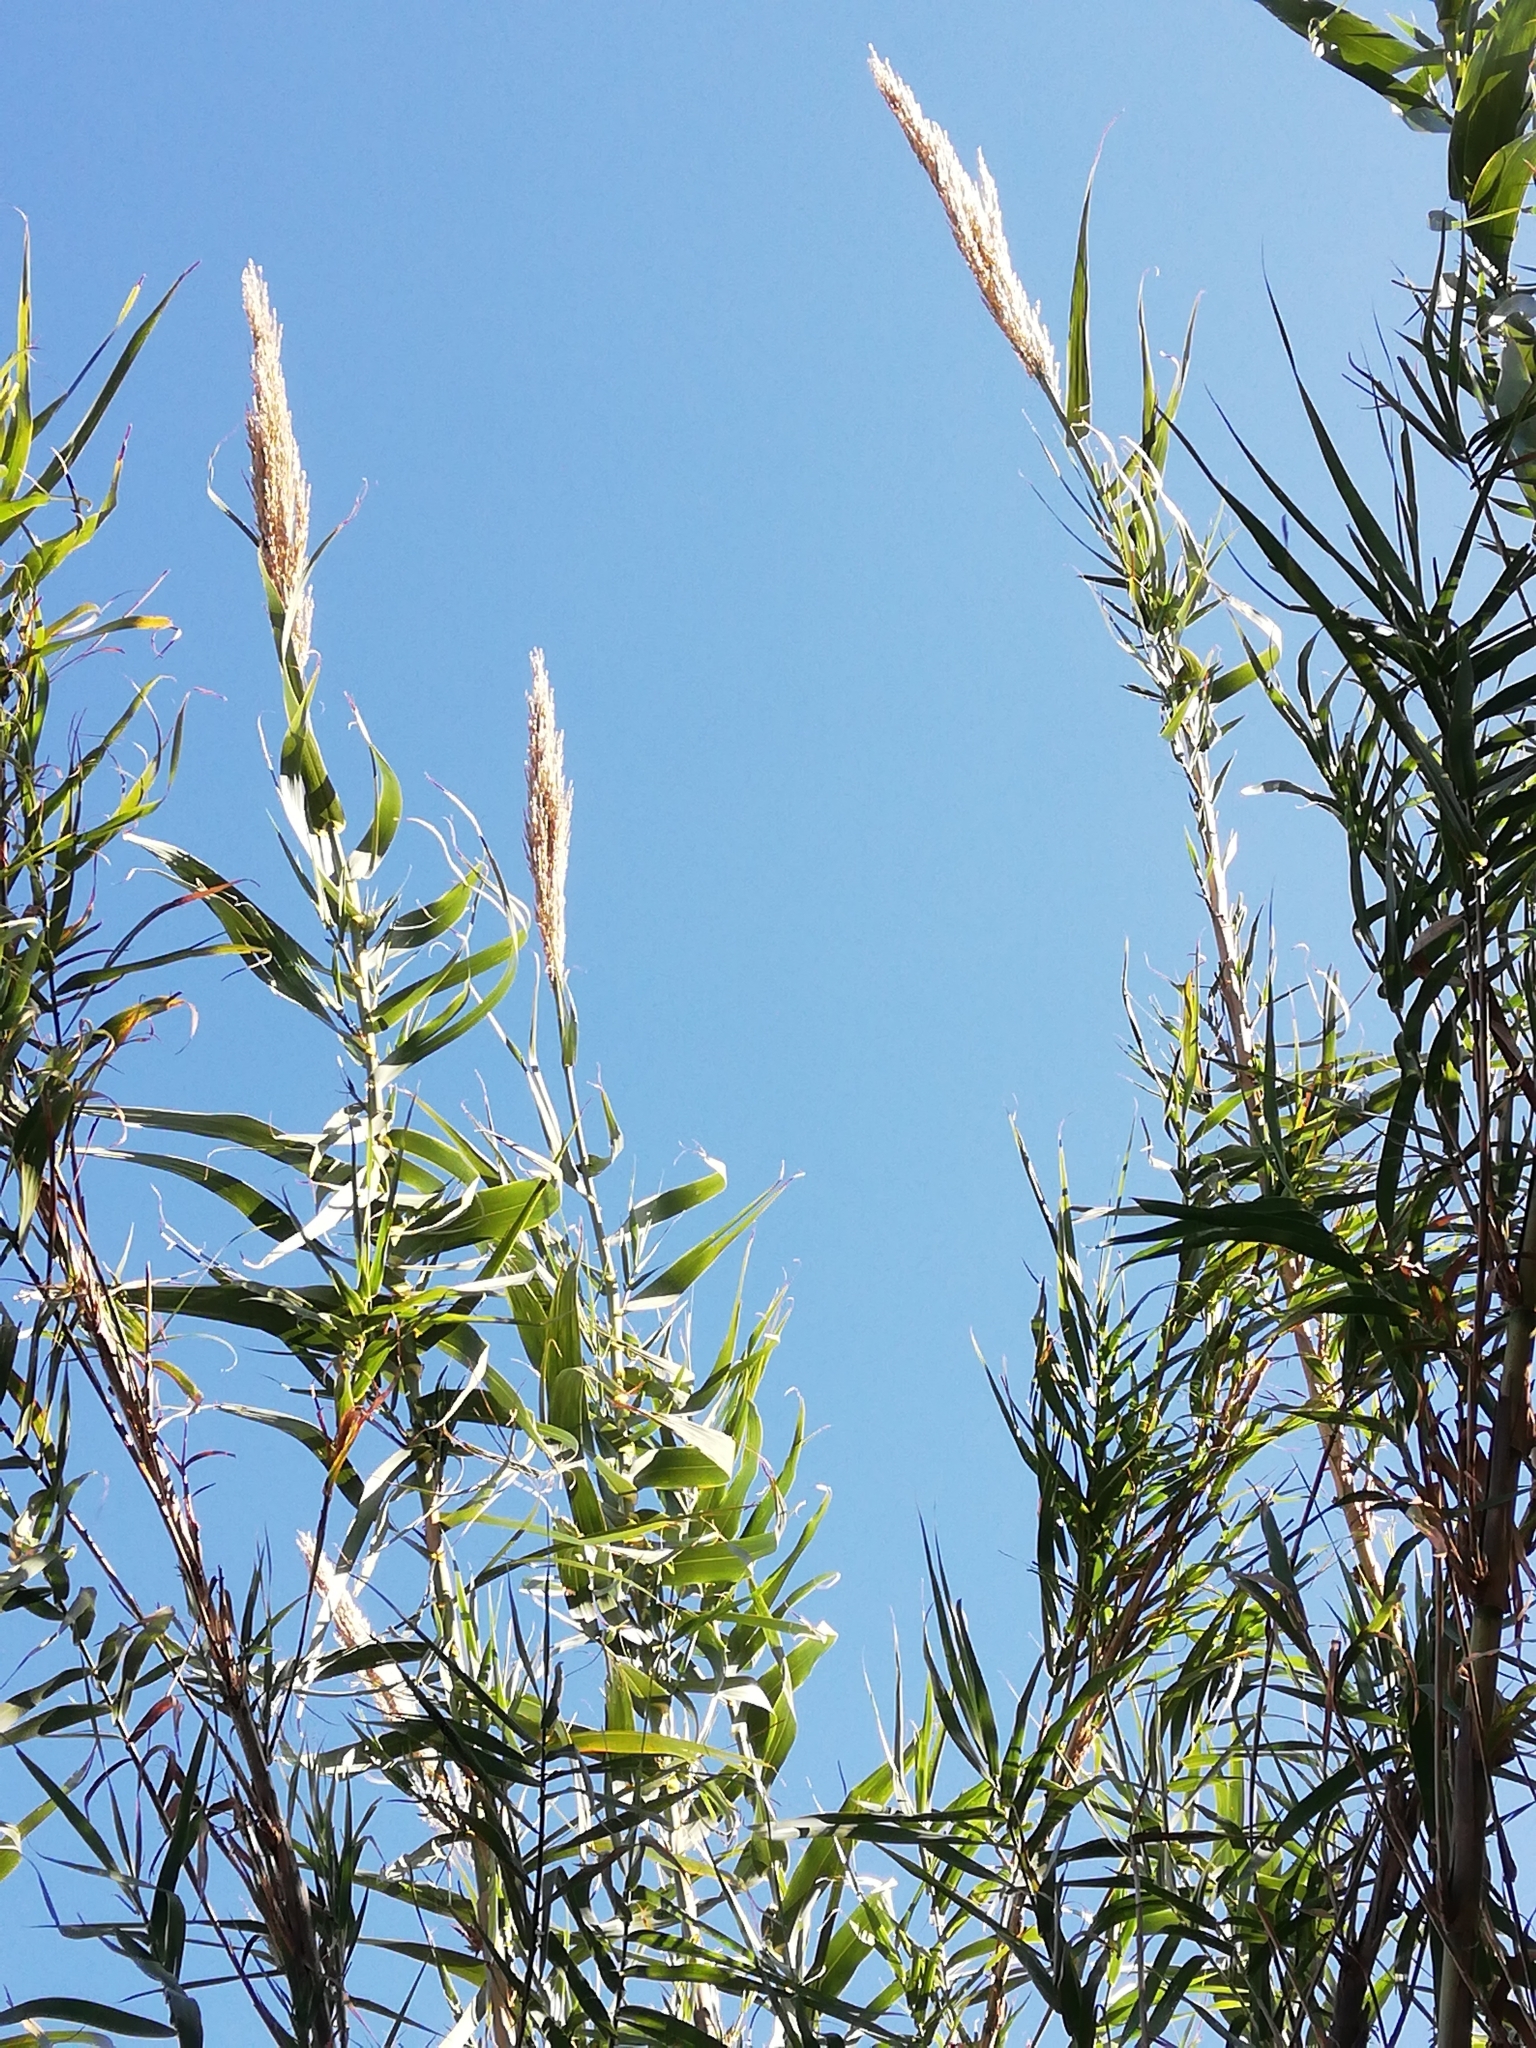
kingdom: Plantae
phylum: Tracheophyta
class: Liliopsida
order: Poales
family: Poaceae
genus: Arundo
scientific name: Arundo donax
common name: Giant reed
